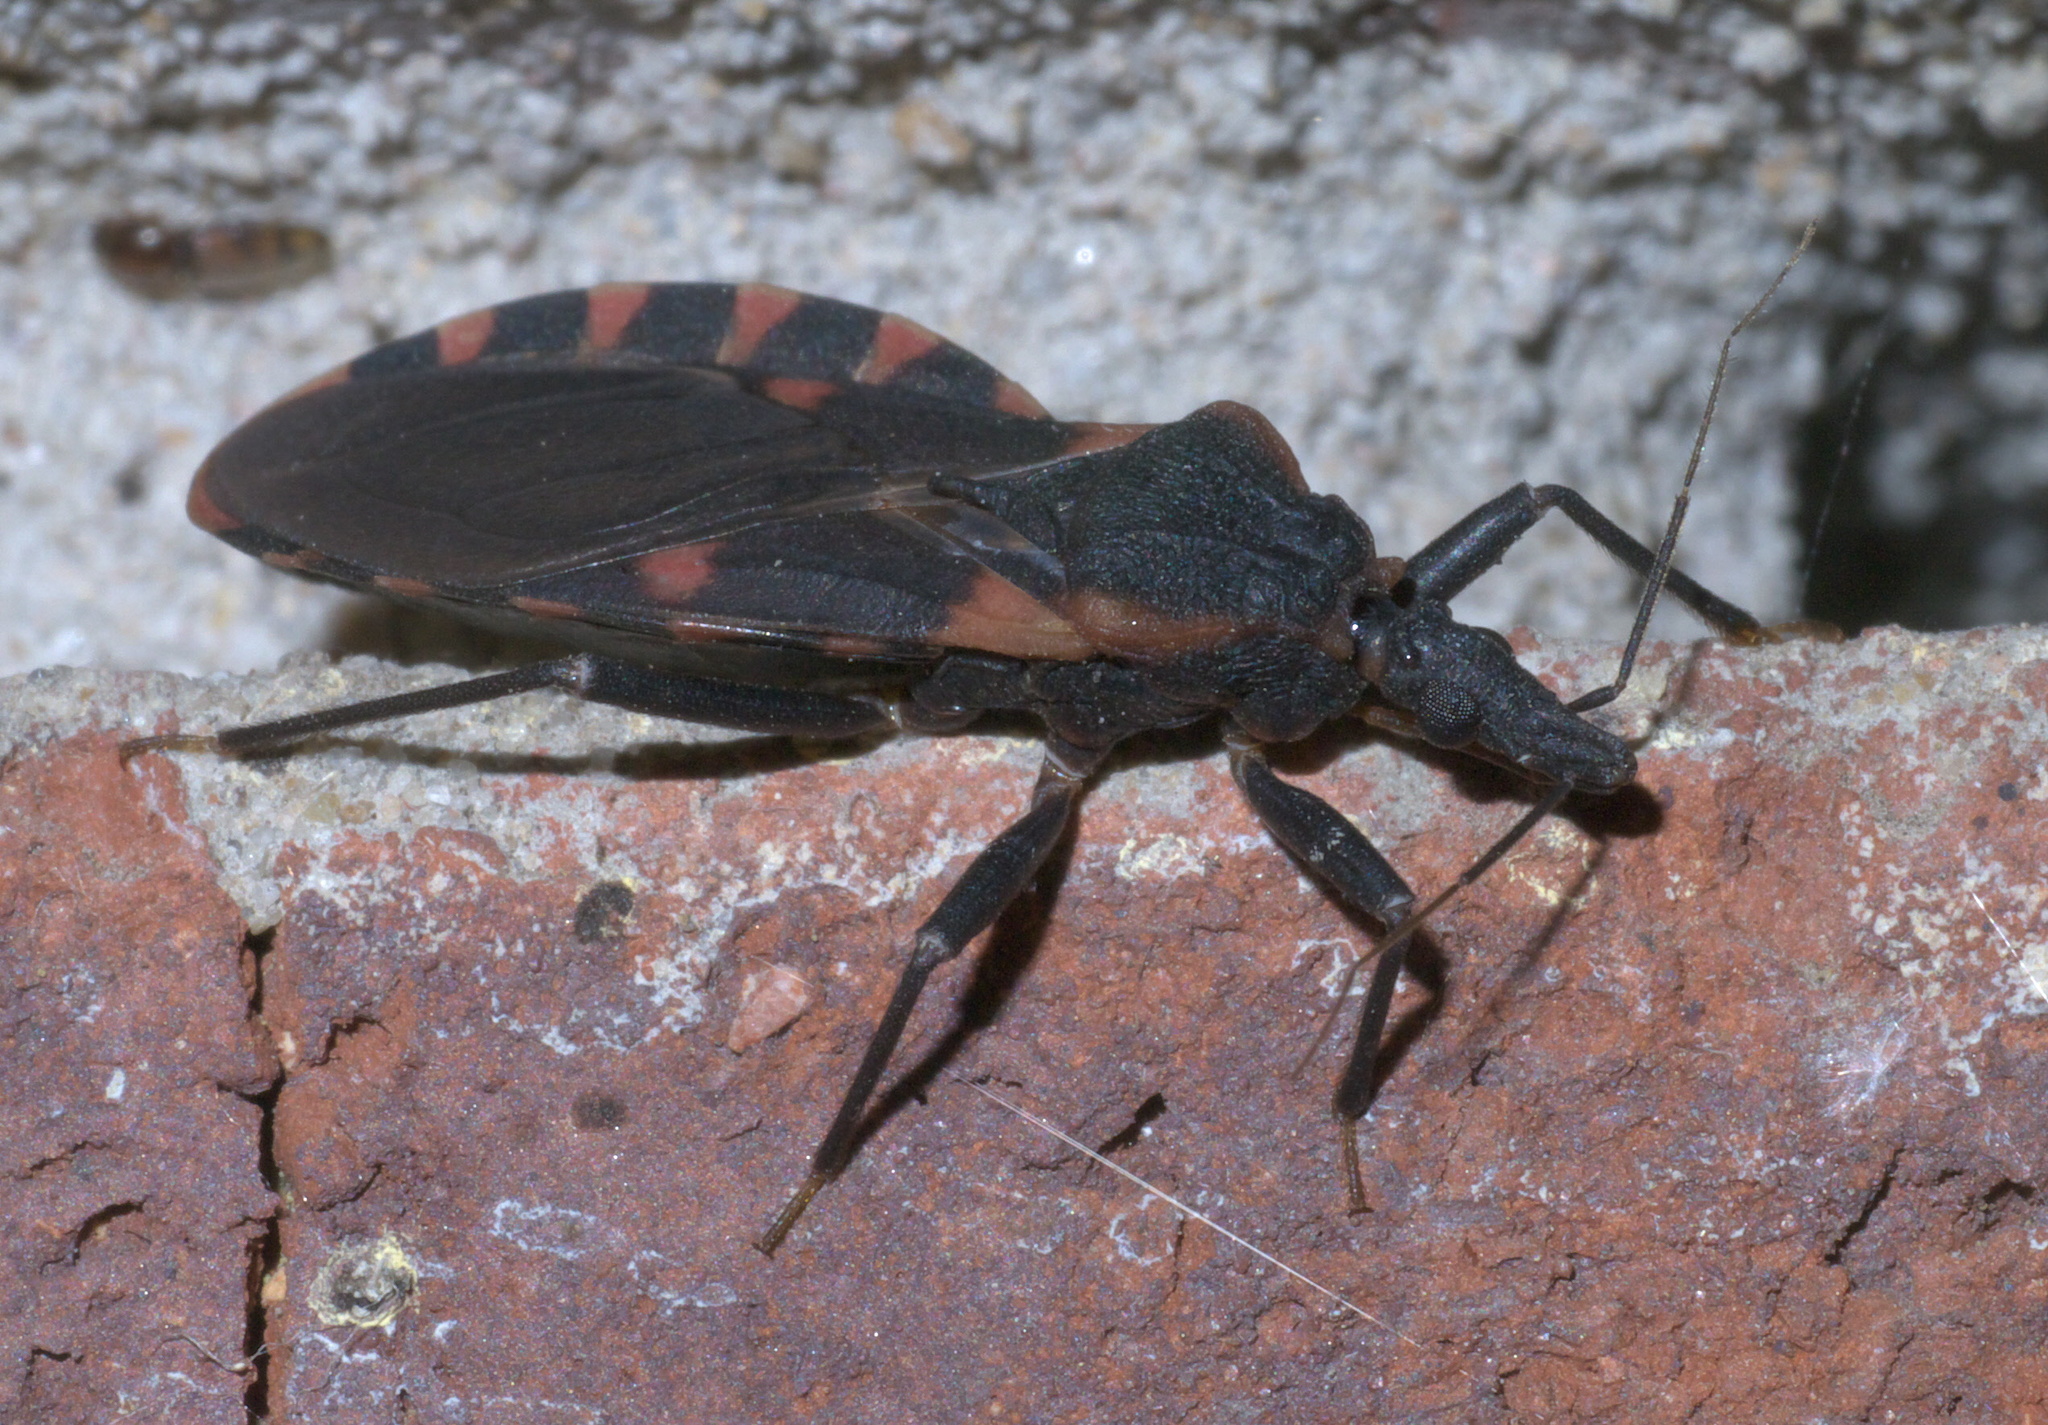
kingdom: Animalia
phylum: Arthropoda
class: Insecta
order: Hemiptera
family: Reduviidae
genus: Triatoma
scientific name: Triatoma sanguisuga
